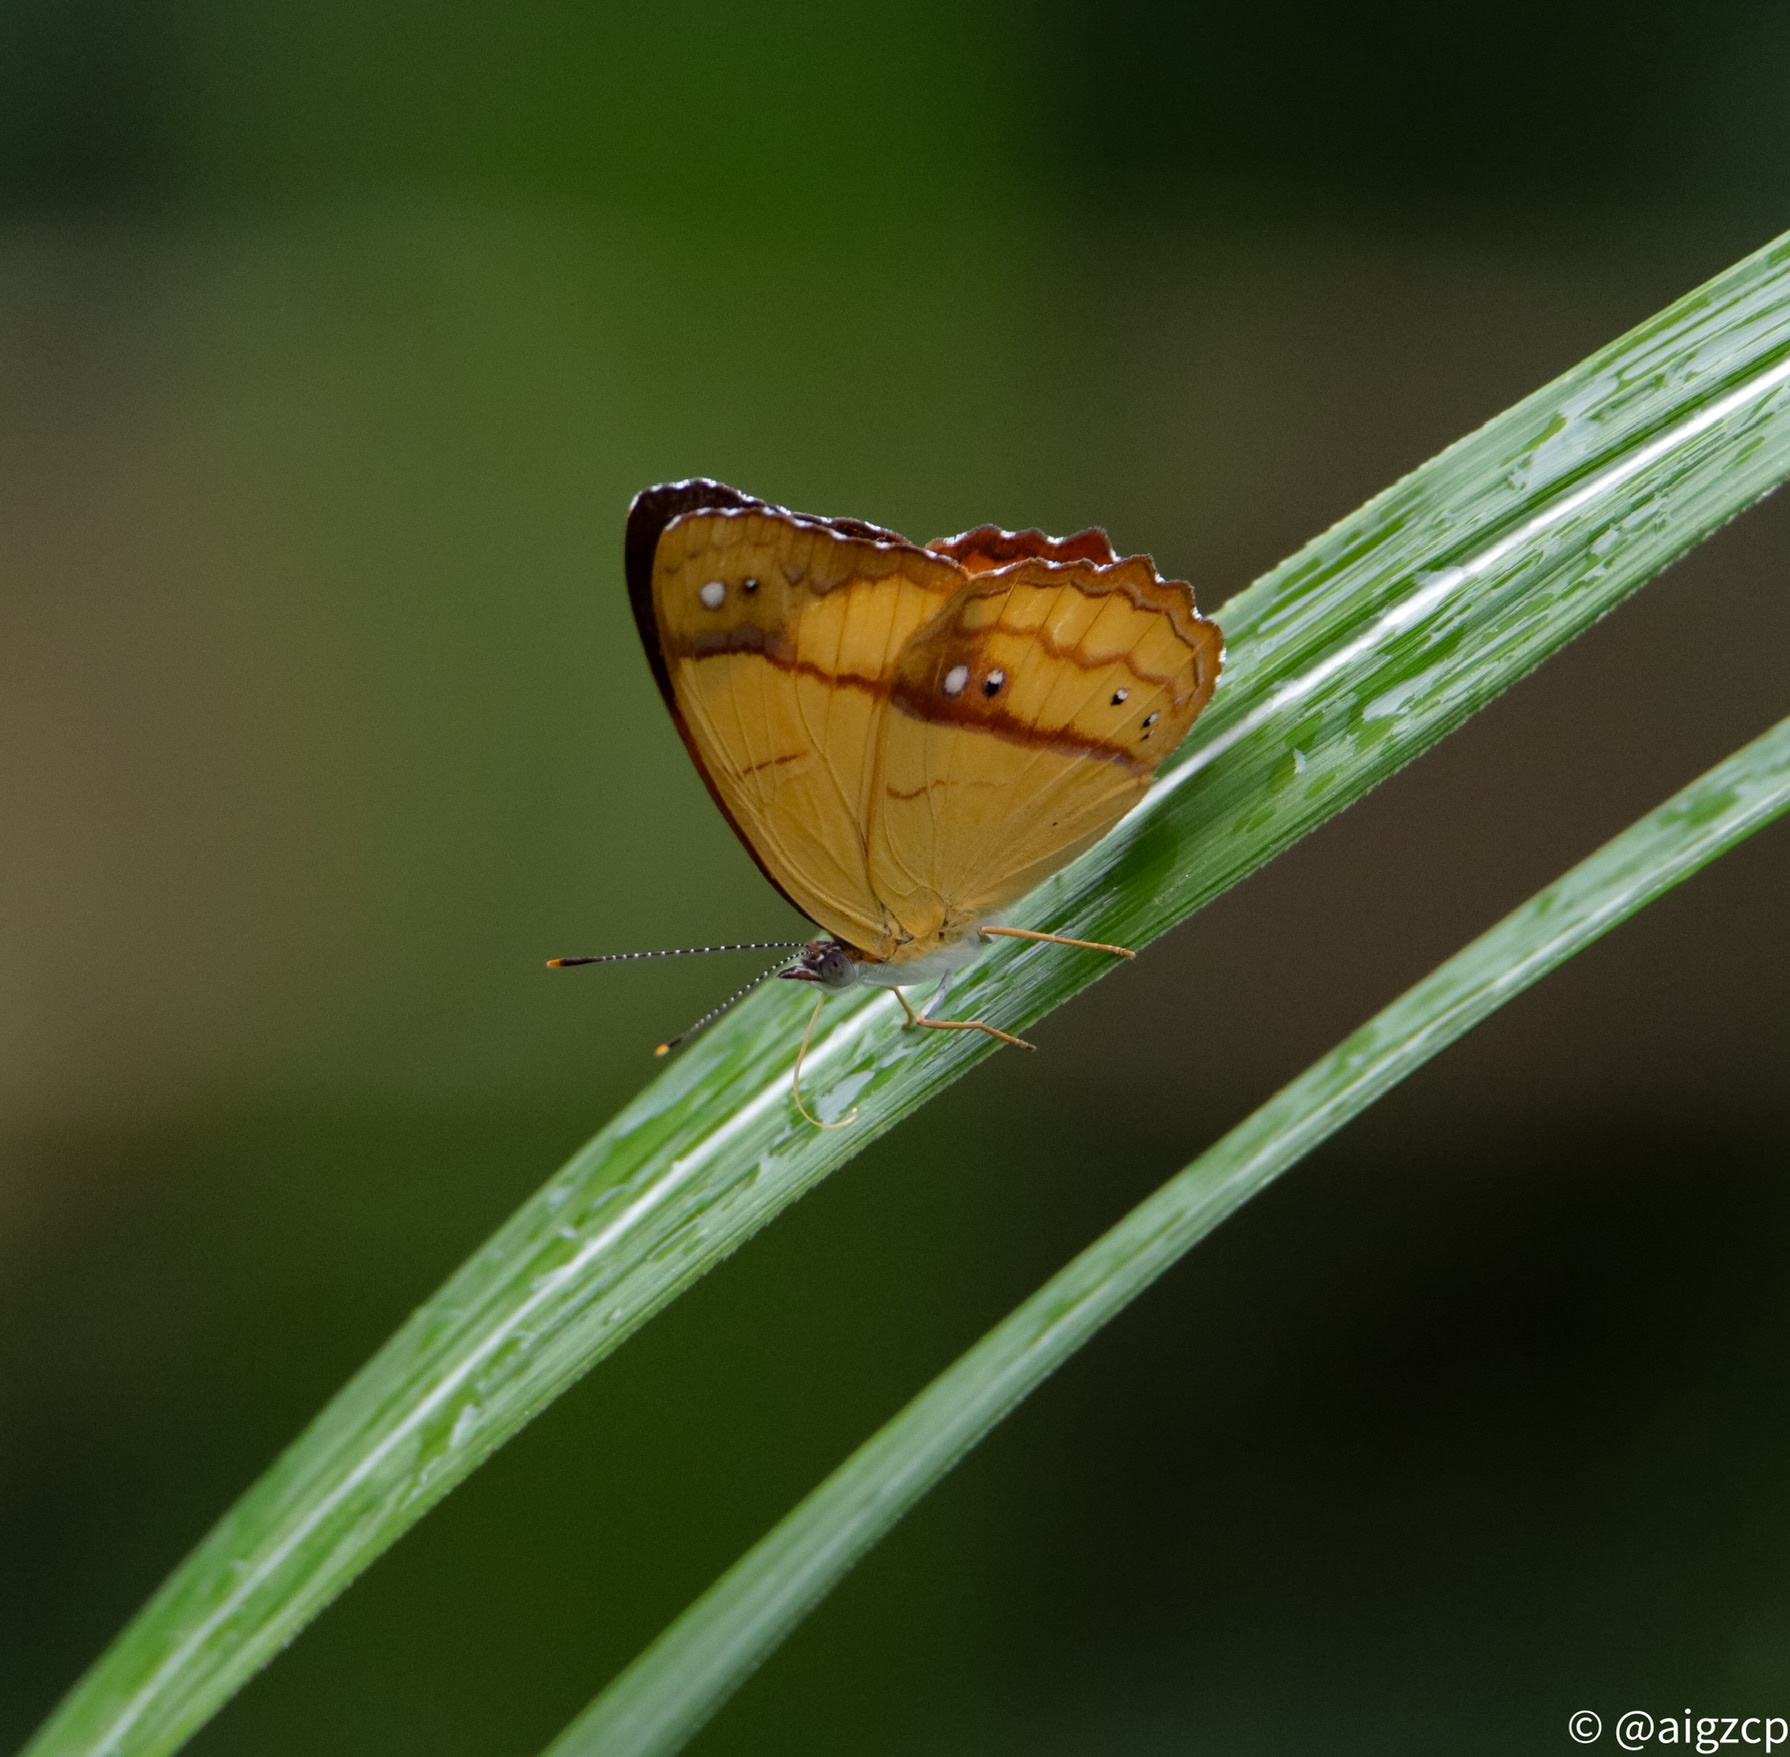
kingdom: Animalia
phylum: Arthropoda
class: Insecta
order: Lepidoptera
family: Nymphalidae
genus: Temenis
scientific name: Temenis laothoe
